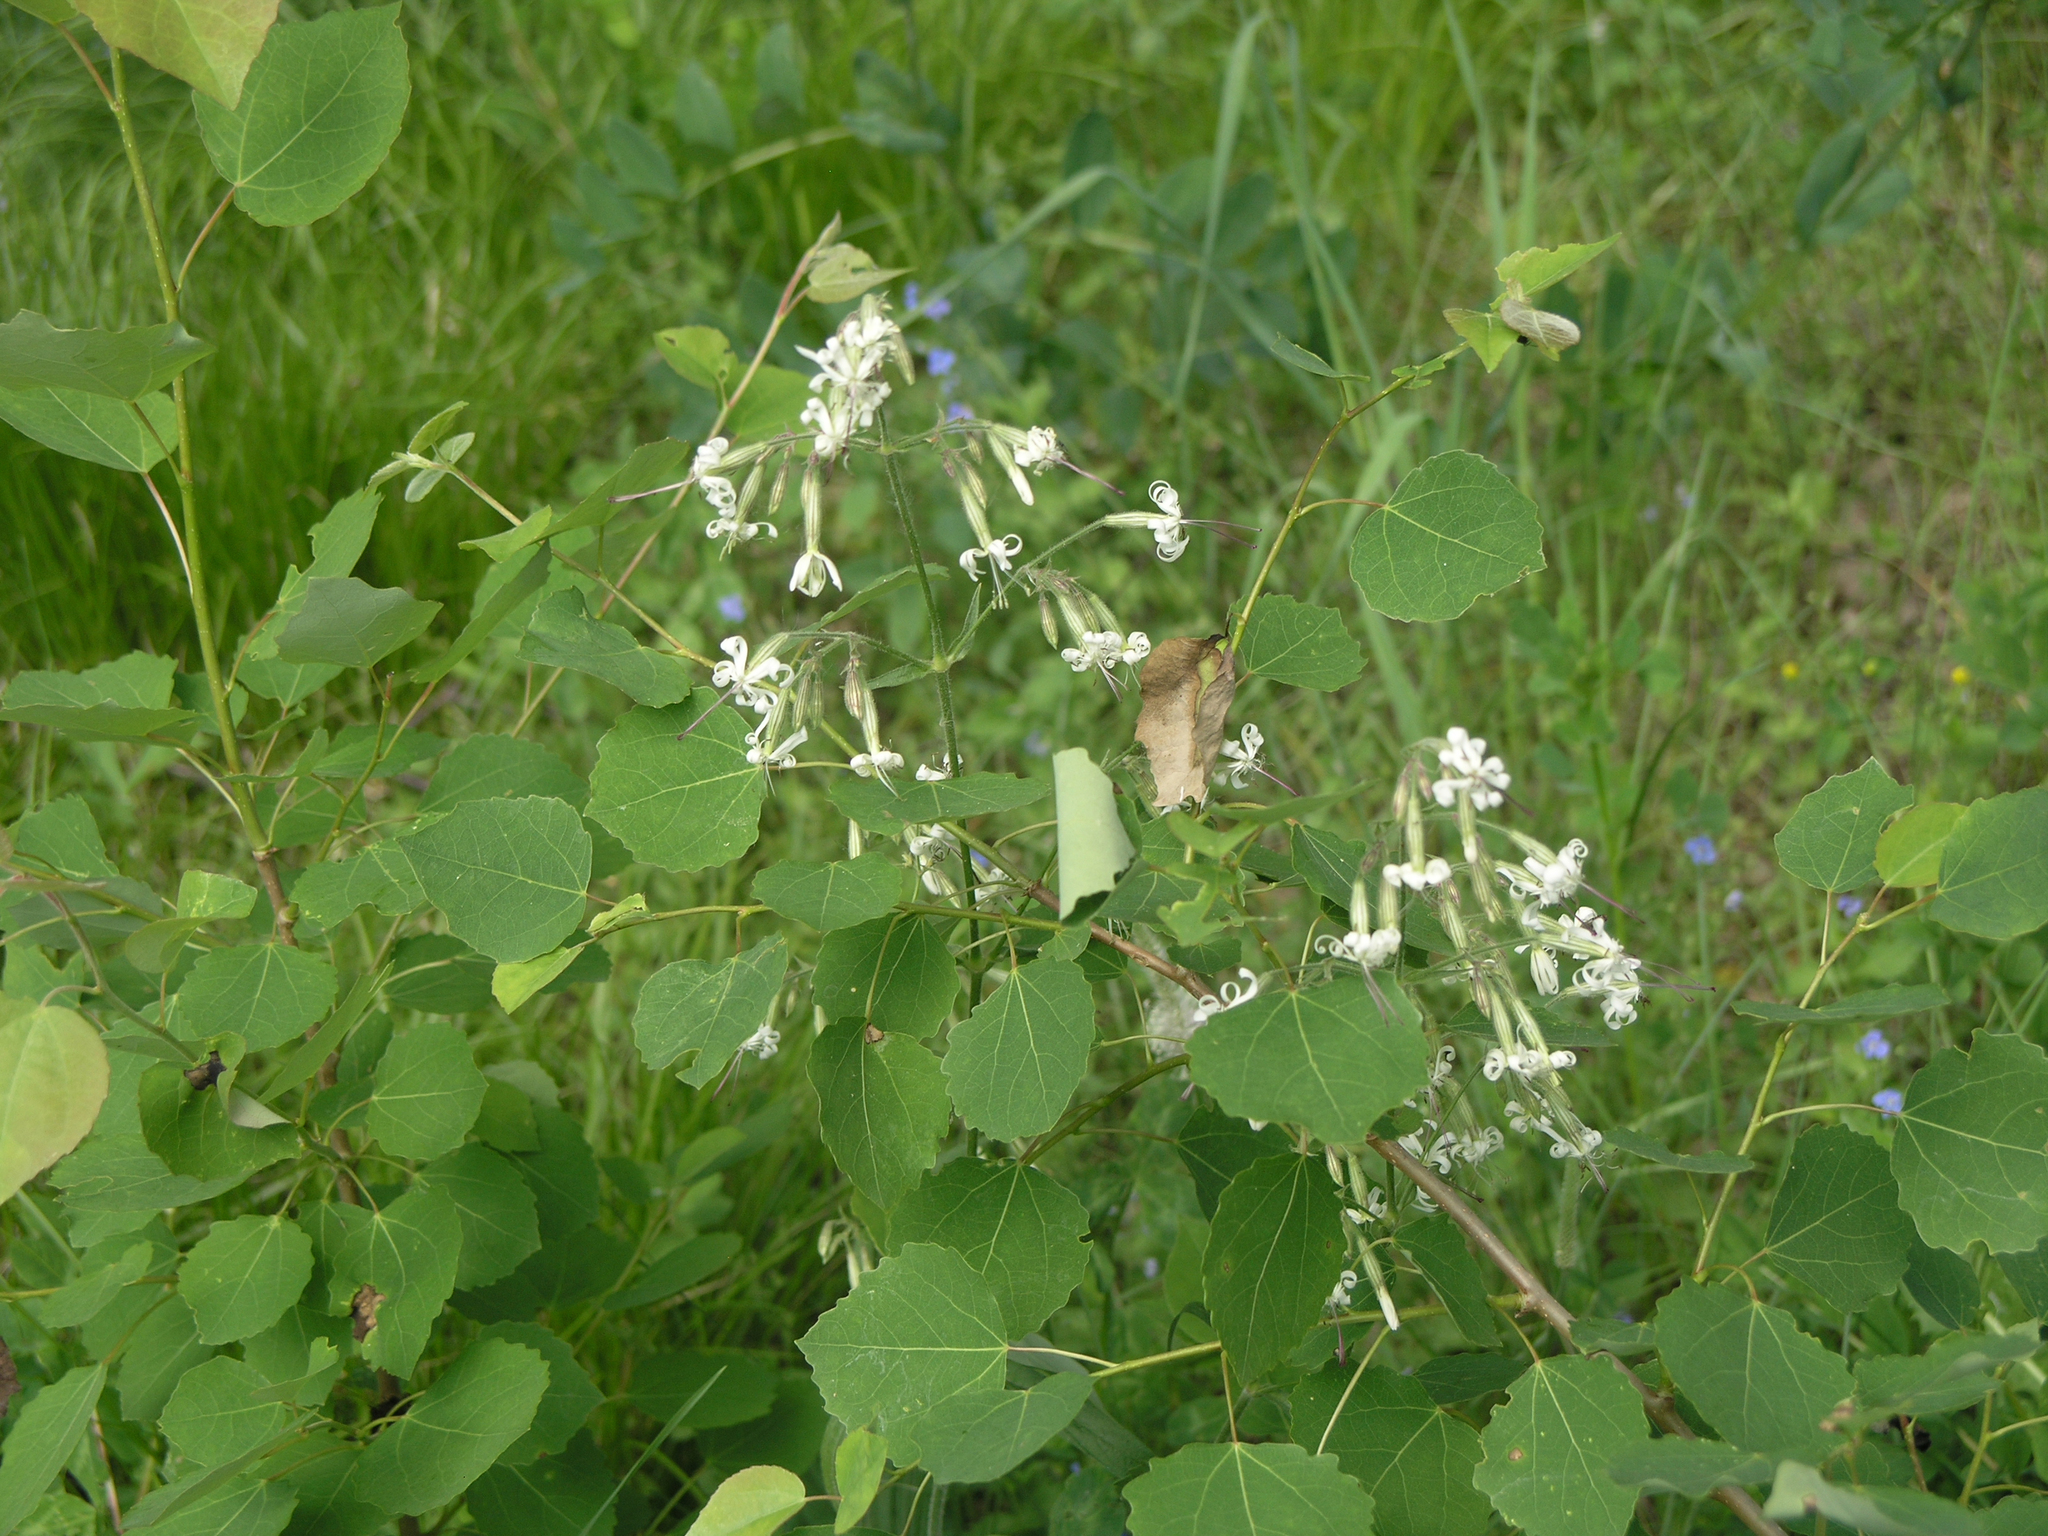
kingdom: Plantae
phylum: Tracheophyta
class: Magnoliopsida
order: Caryophyllales
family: Caryophyllaceae
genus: Silene
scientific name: Silene nutans
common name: Nottingham catchfly
